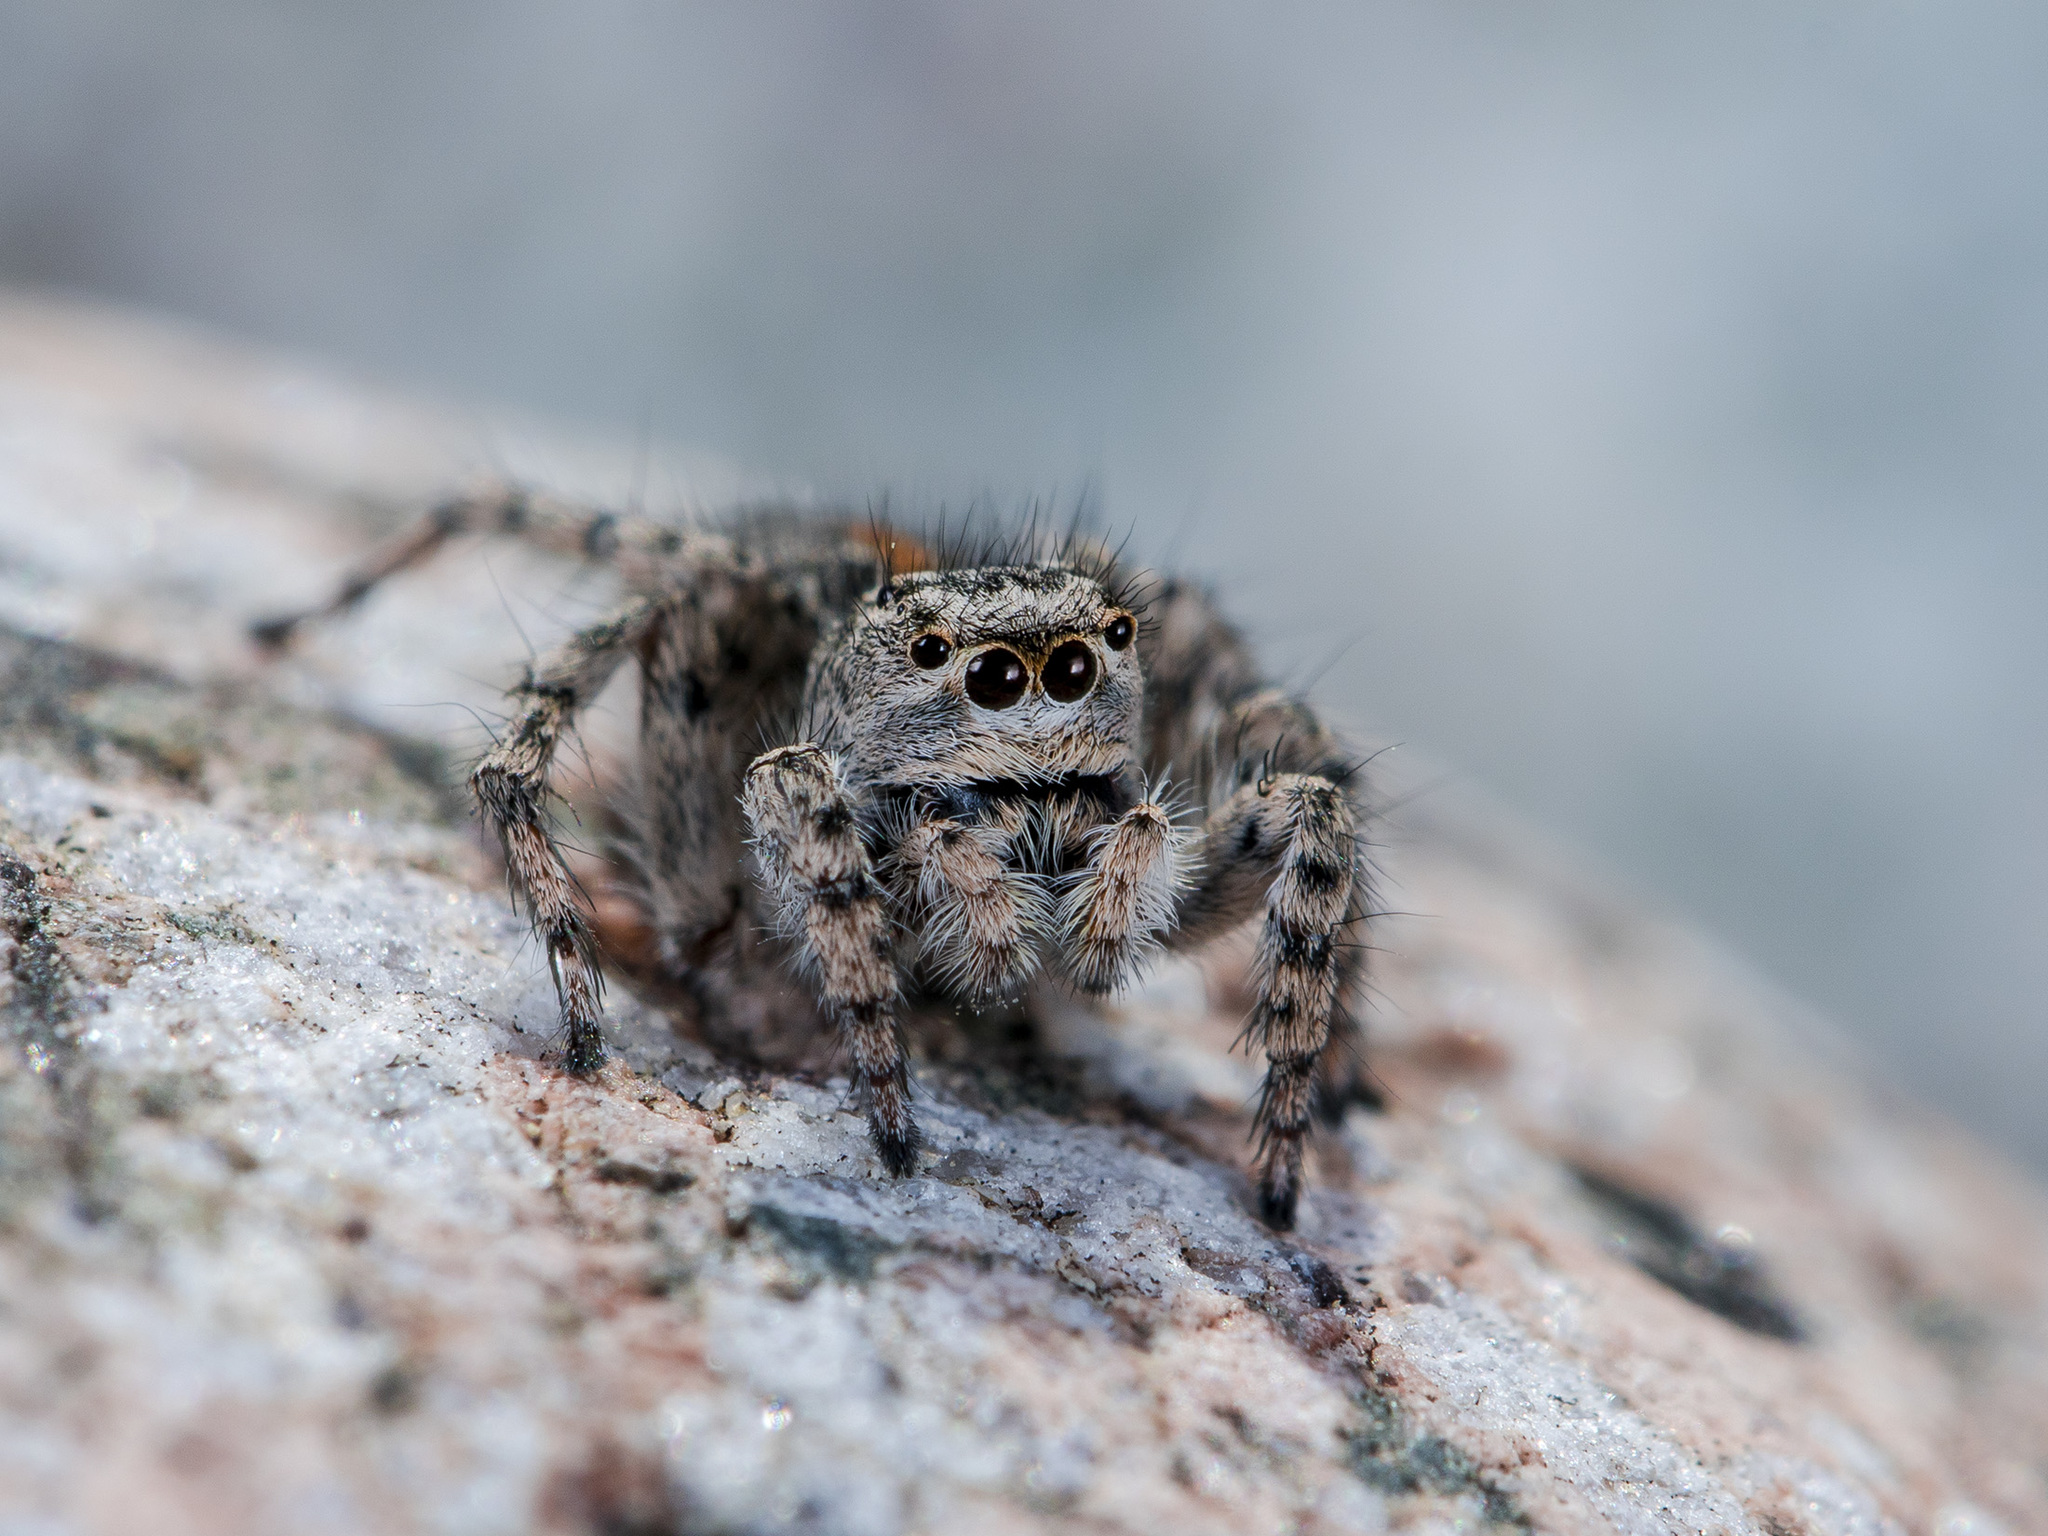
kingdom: Animalia
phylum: Arthropoda
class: Arachnida
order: Araneae
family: Salticidae
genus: Aelurillus
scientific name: Aelurillus dubatolovi
